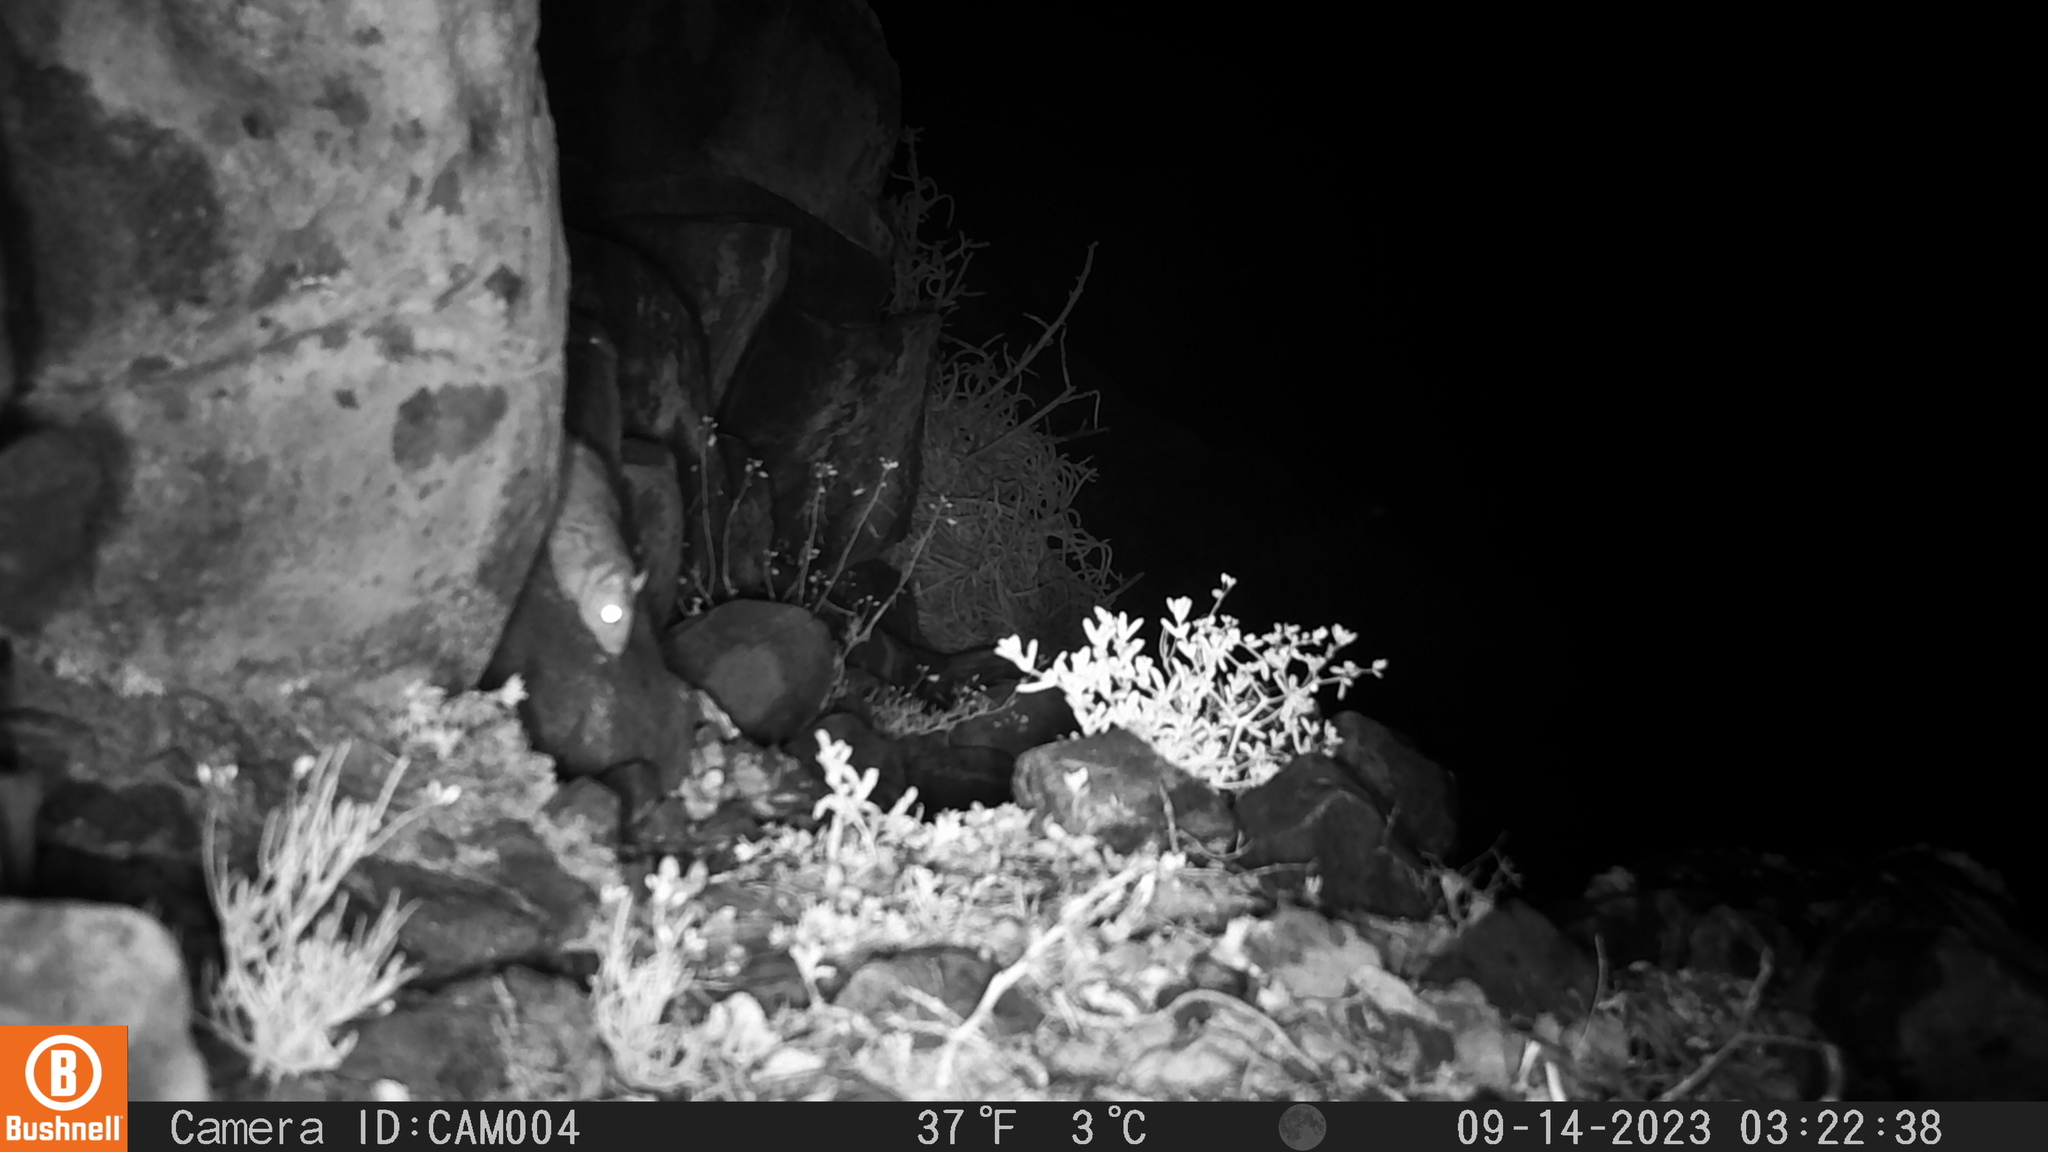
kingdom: Animalia
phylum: Chordata
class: Mammalia
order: Rodentia
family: Muridae
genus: Micaelamys
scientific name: Micaelamys namaquensis
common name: Namaqua micaelamys
